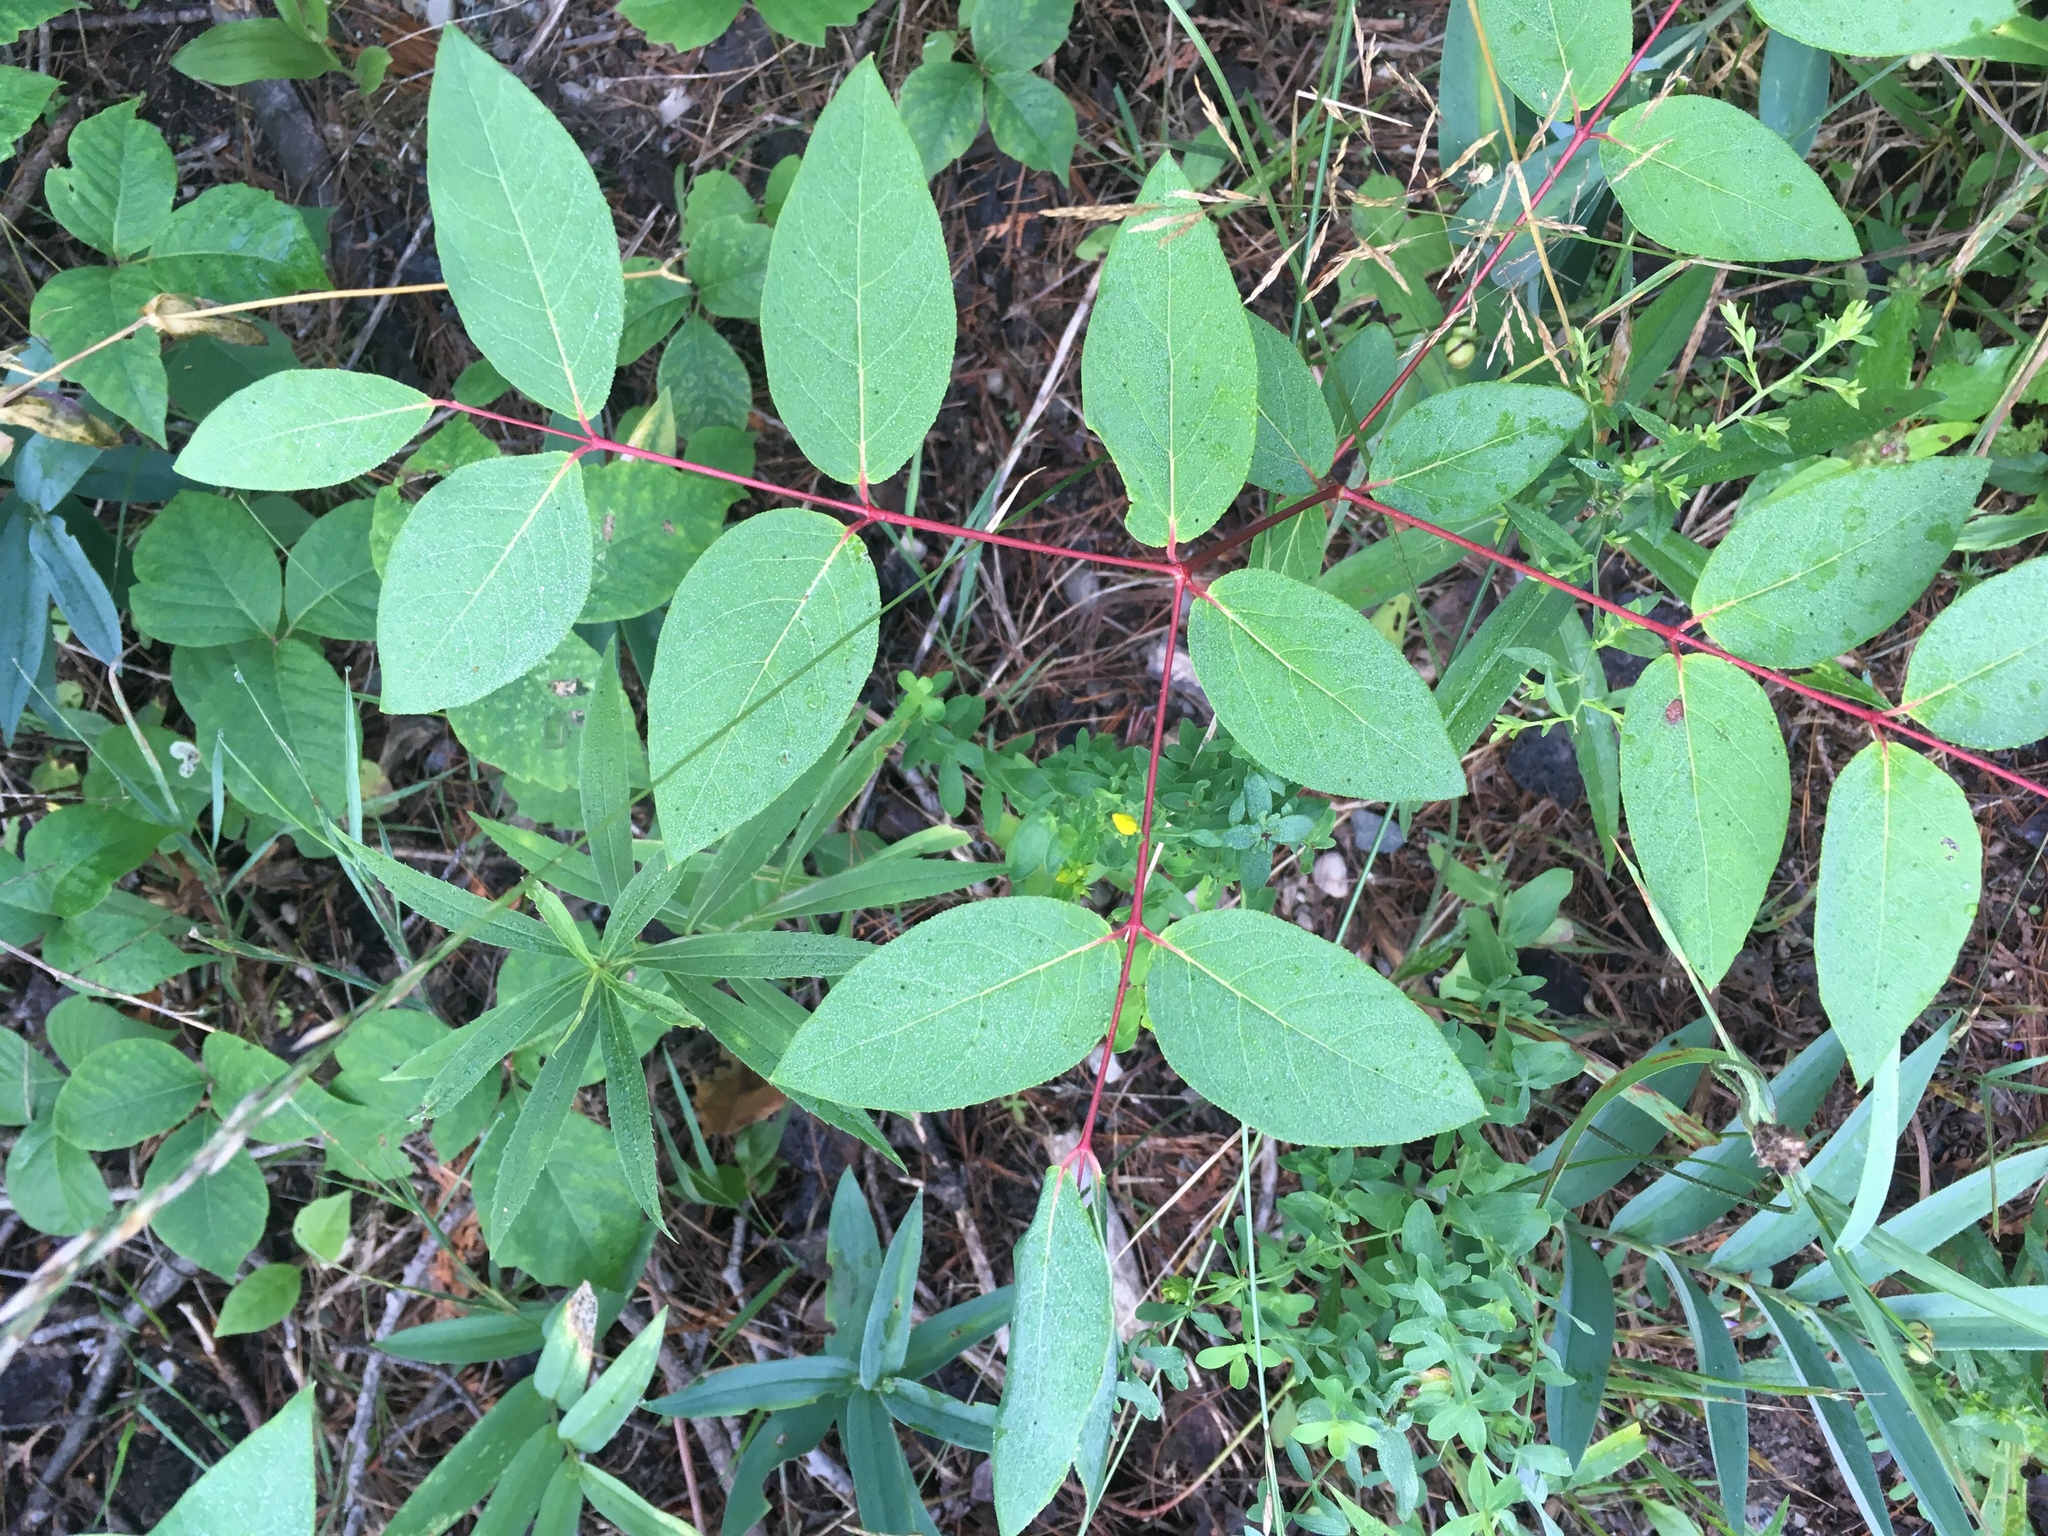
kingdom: Plantae
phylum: Tracheophyta
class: Magnoliopsida
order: Gentianales
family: Apocynaceae
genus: Apocynum
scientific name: Apocynum androsaemifolium
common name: Spreading dogbane
